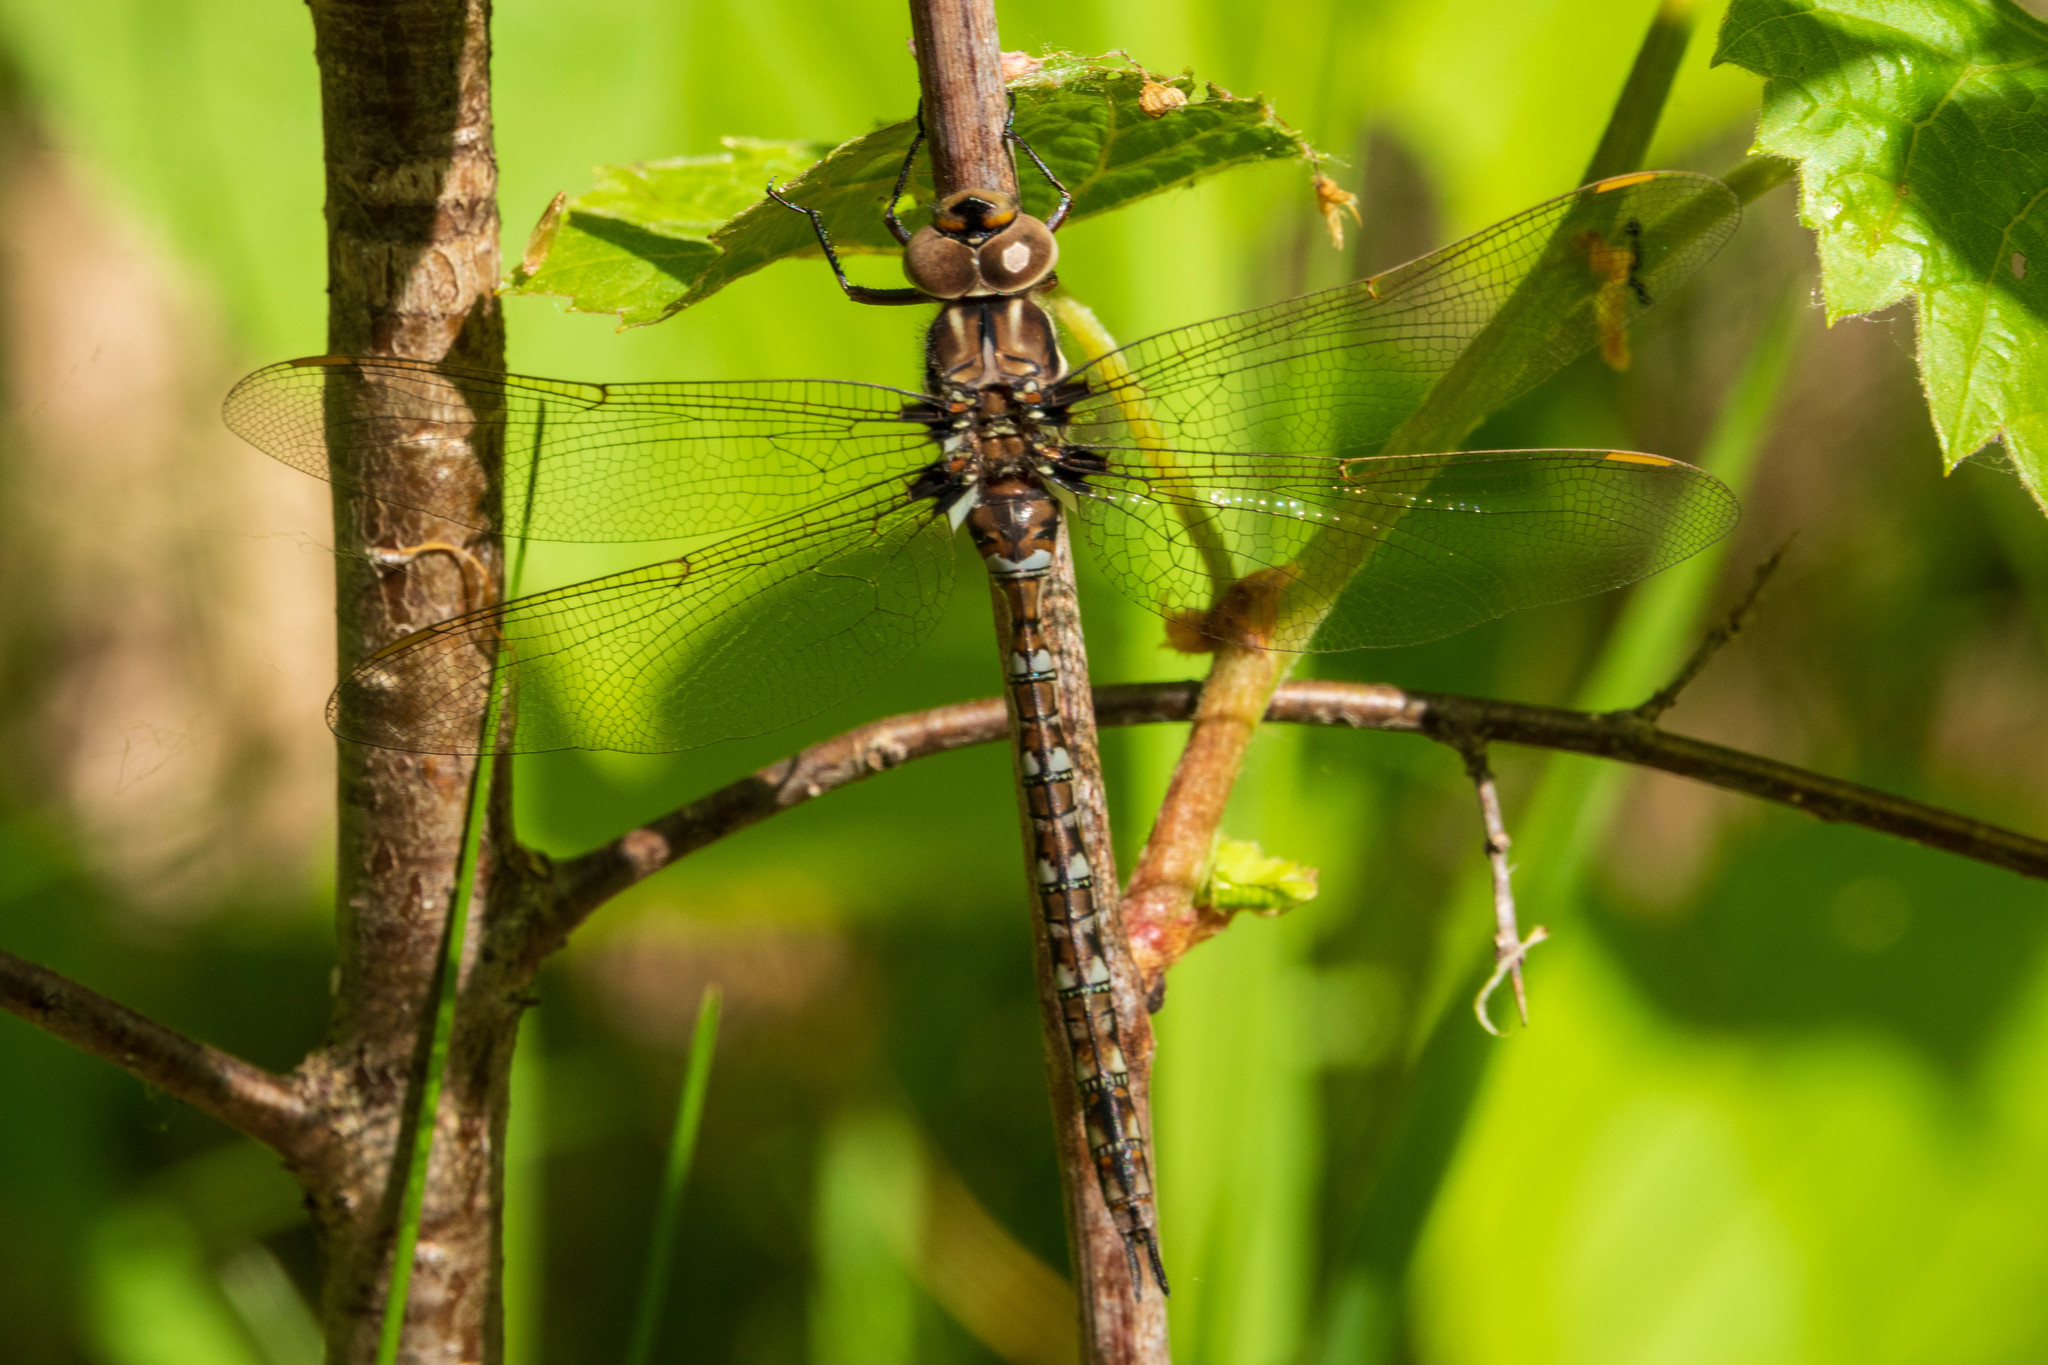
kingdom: Animalia
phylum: Arthropoda
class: Insecta
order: Odonata
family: Aeshnidae
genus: Basiaeschna
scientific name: Basiaeschna janata
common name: Springtime darner
